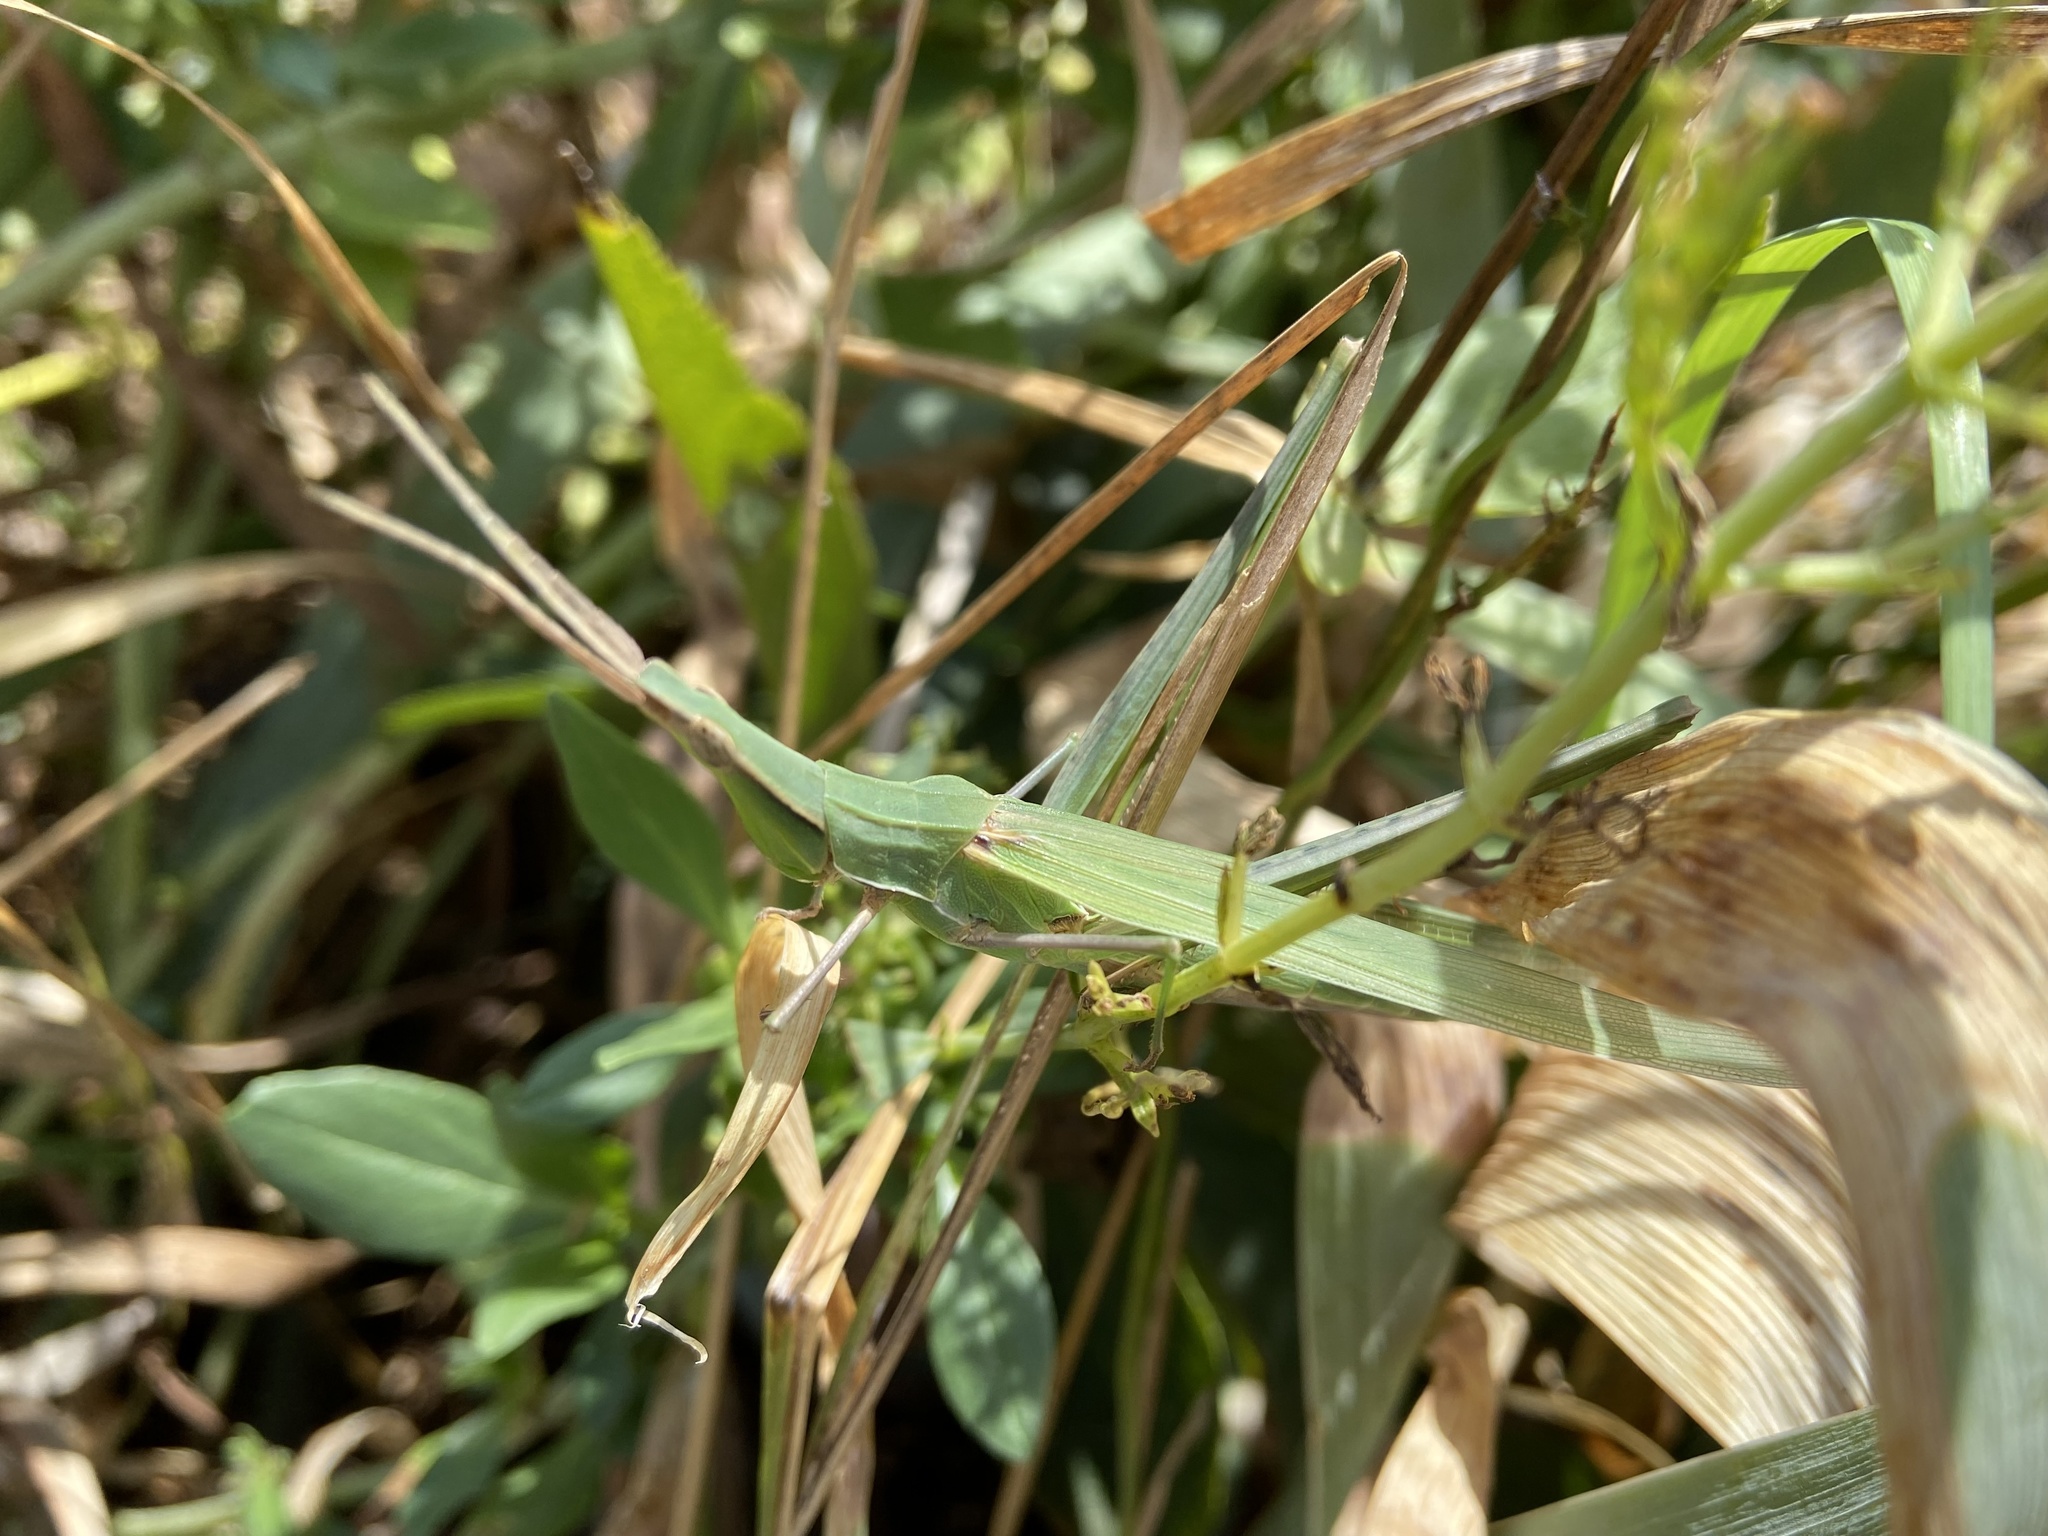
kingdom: Animalia
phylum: Arthropoda
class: Insecta
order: Orthoptera
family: Acrididae
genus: Acrida
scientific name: Acrida ungarica
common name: Common cone-headed grasshopper
